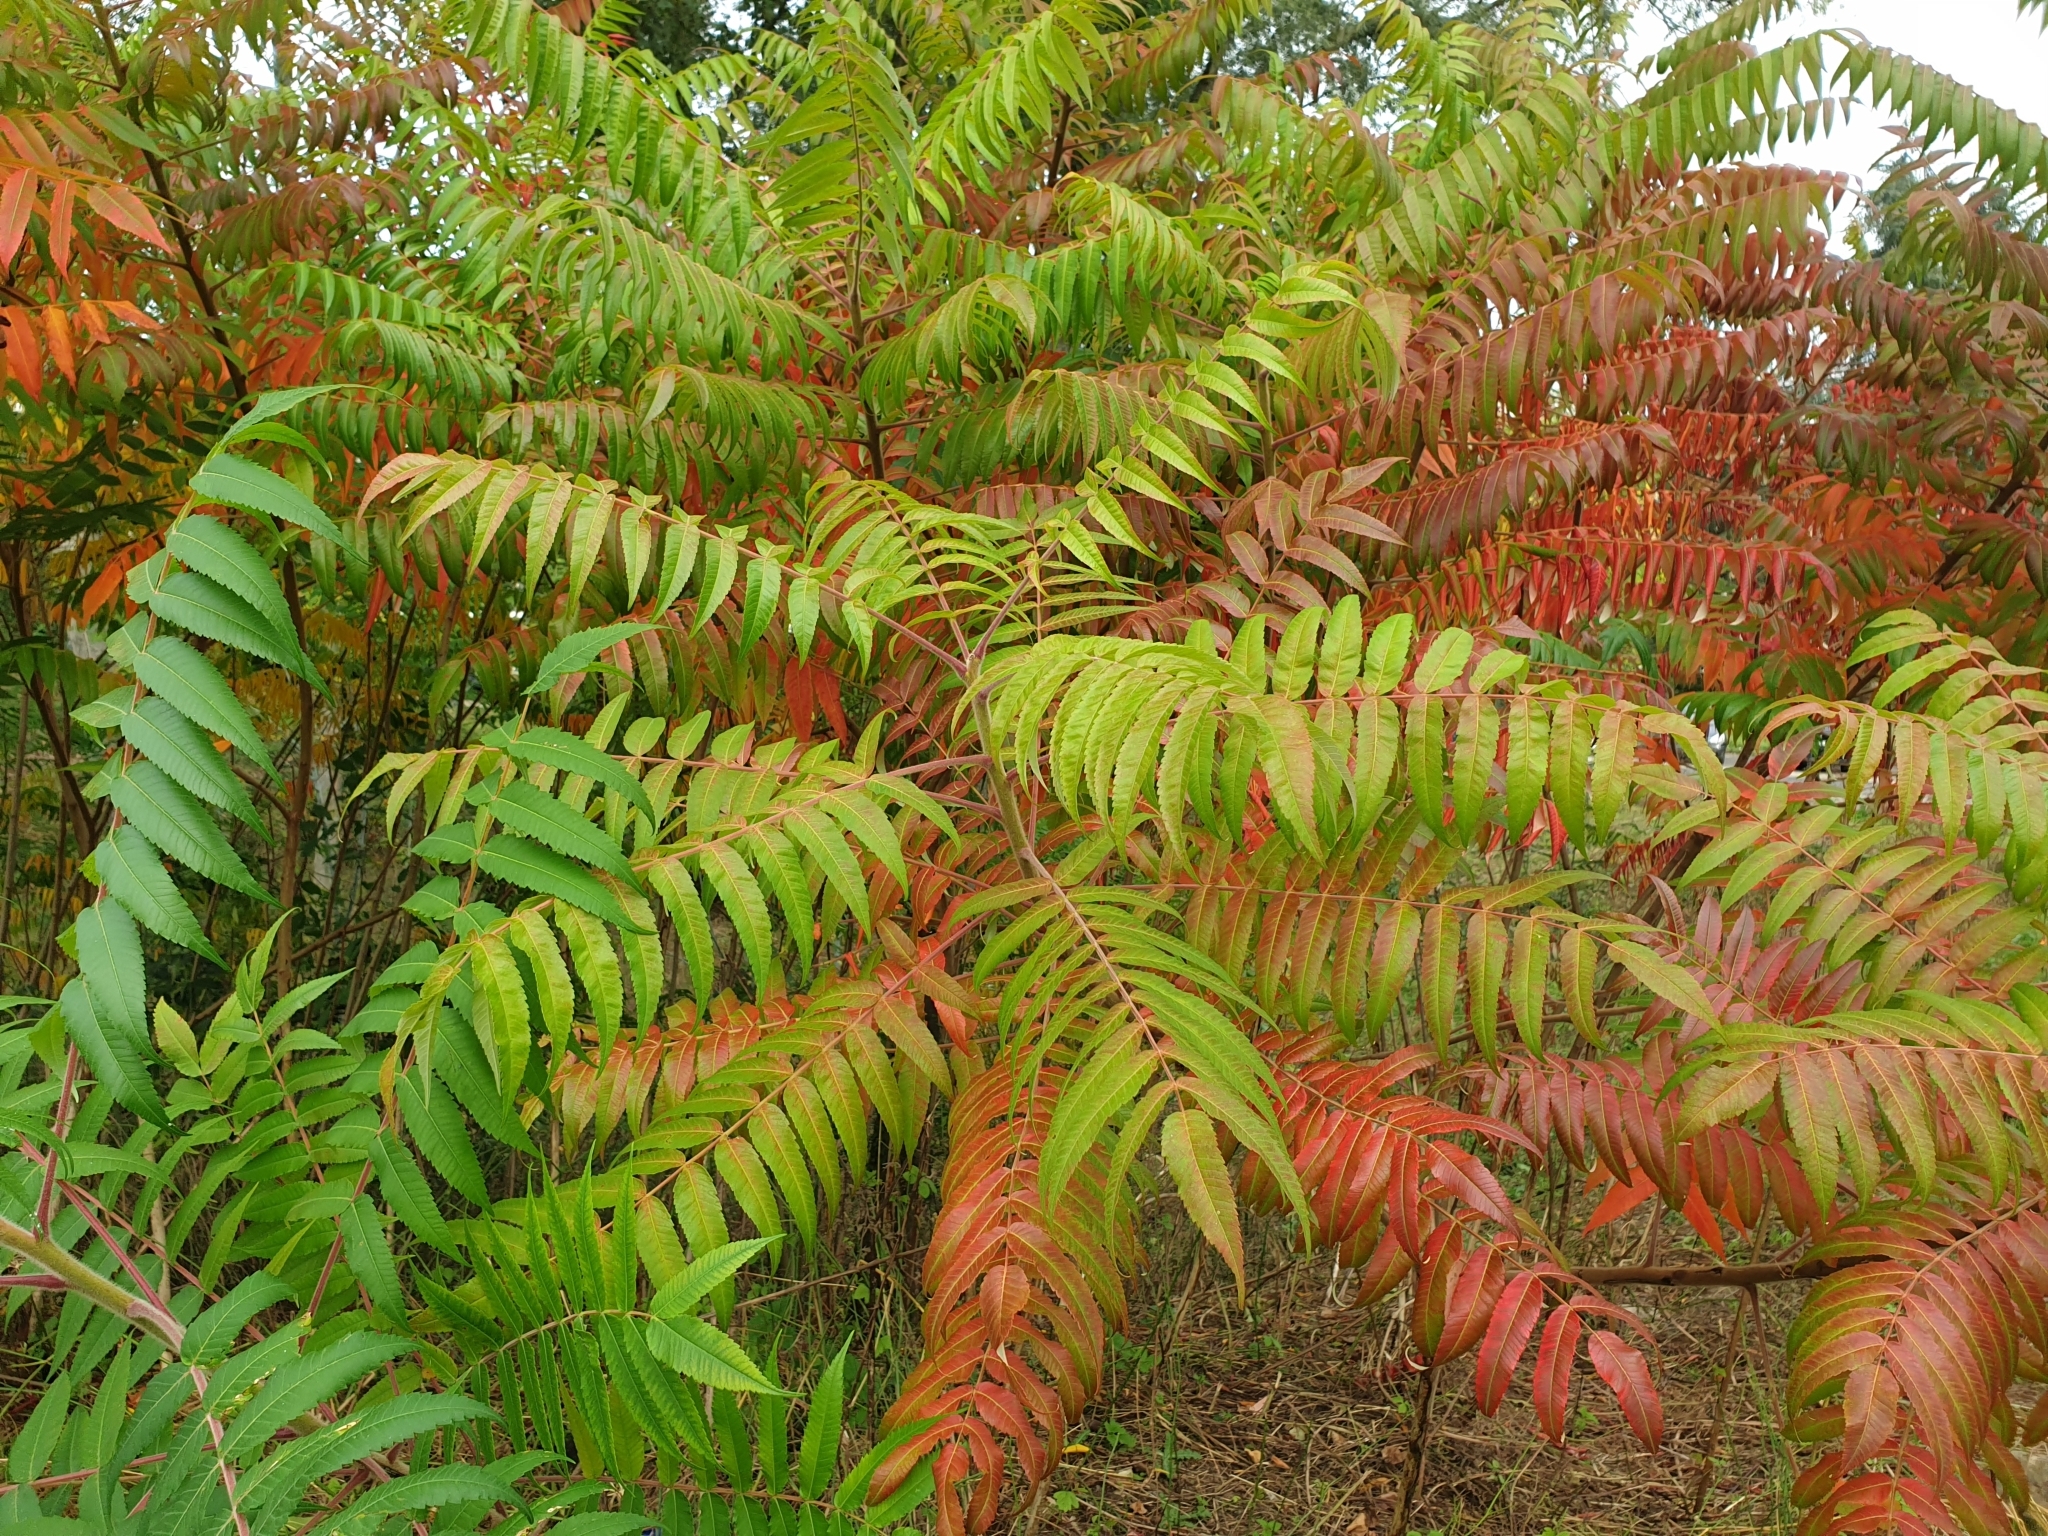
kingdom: Plantae
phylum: Tracheophyta
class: Magnoliopsida
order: Sapindales
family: Anacardiaceae
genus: Rhus
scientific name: Rhus typhina
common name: Staghorn sumac
